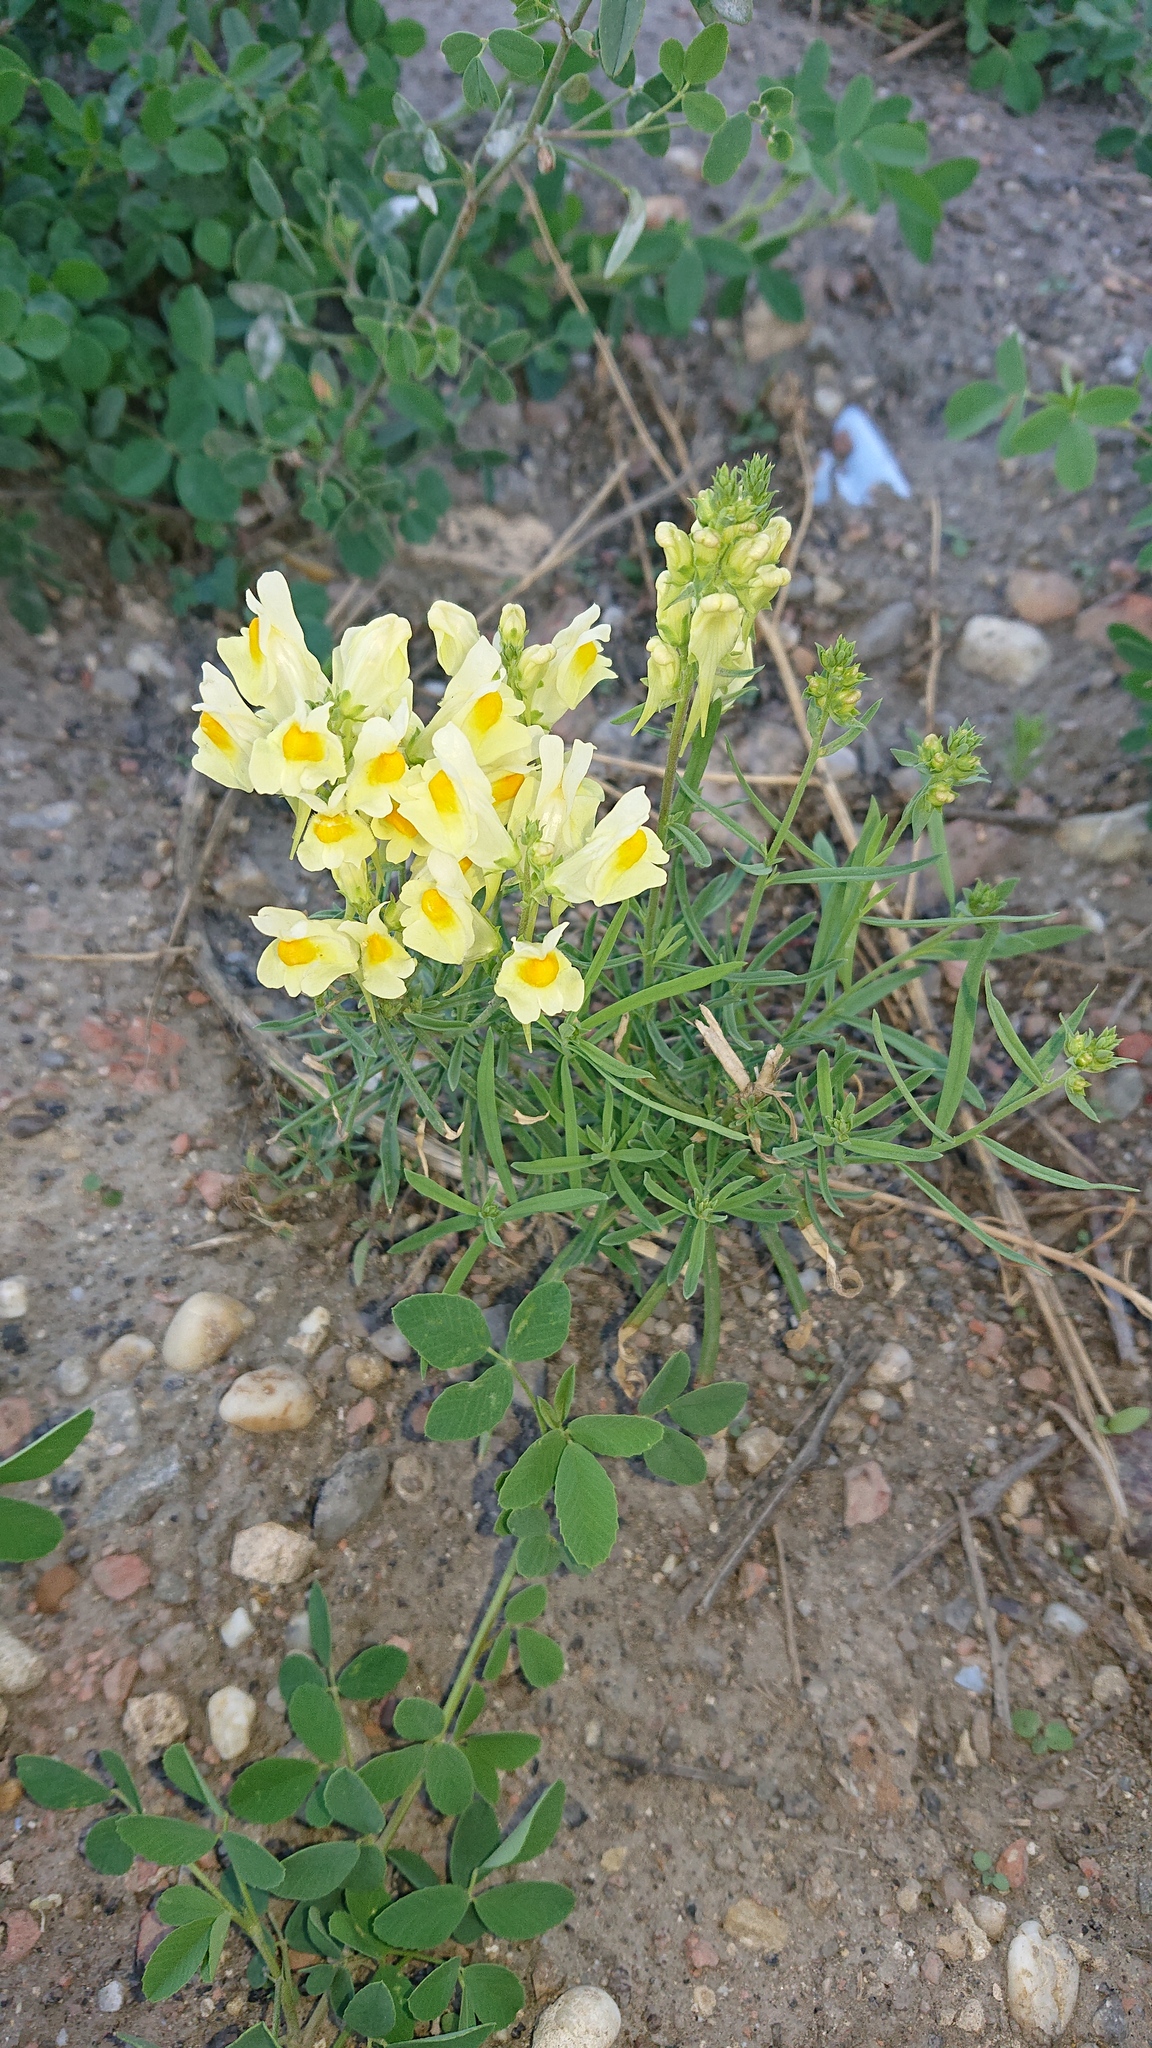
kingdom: Plantae
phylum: Tracheophyta
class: Magnoliopsida
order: Lamiales
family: Plantaginaceae
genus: Linaria
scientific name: Linaria vulgaris
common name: Butter and eggs
